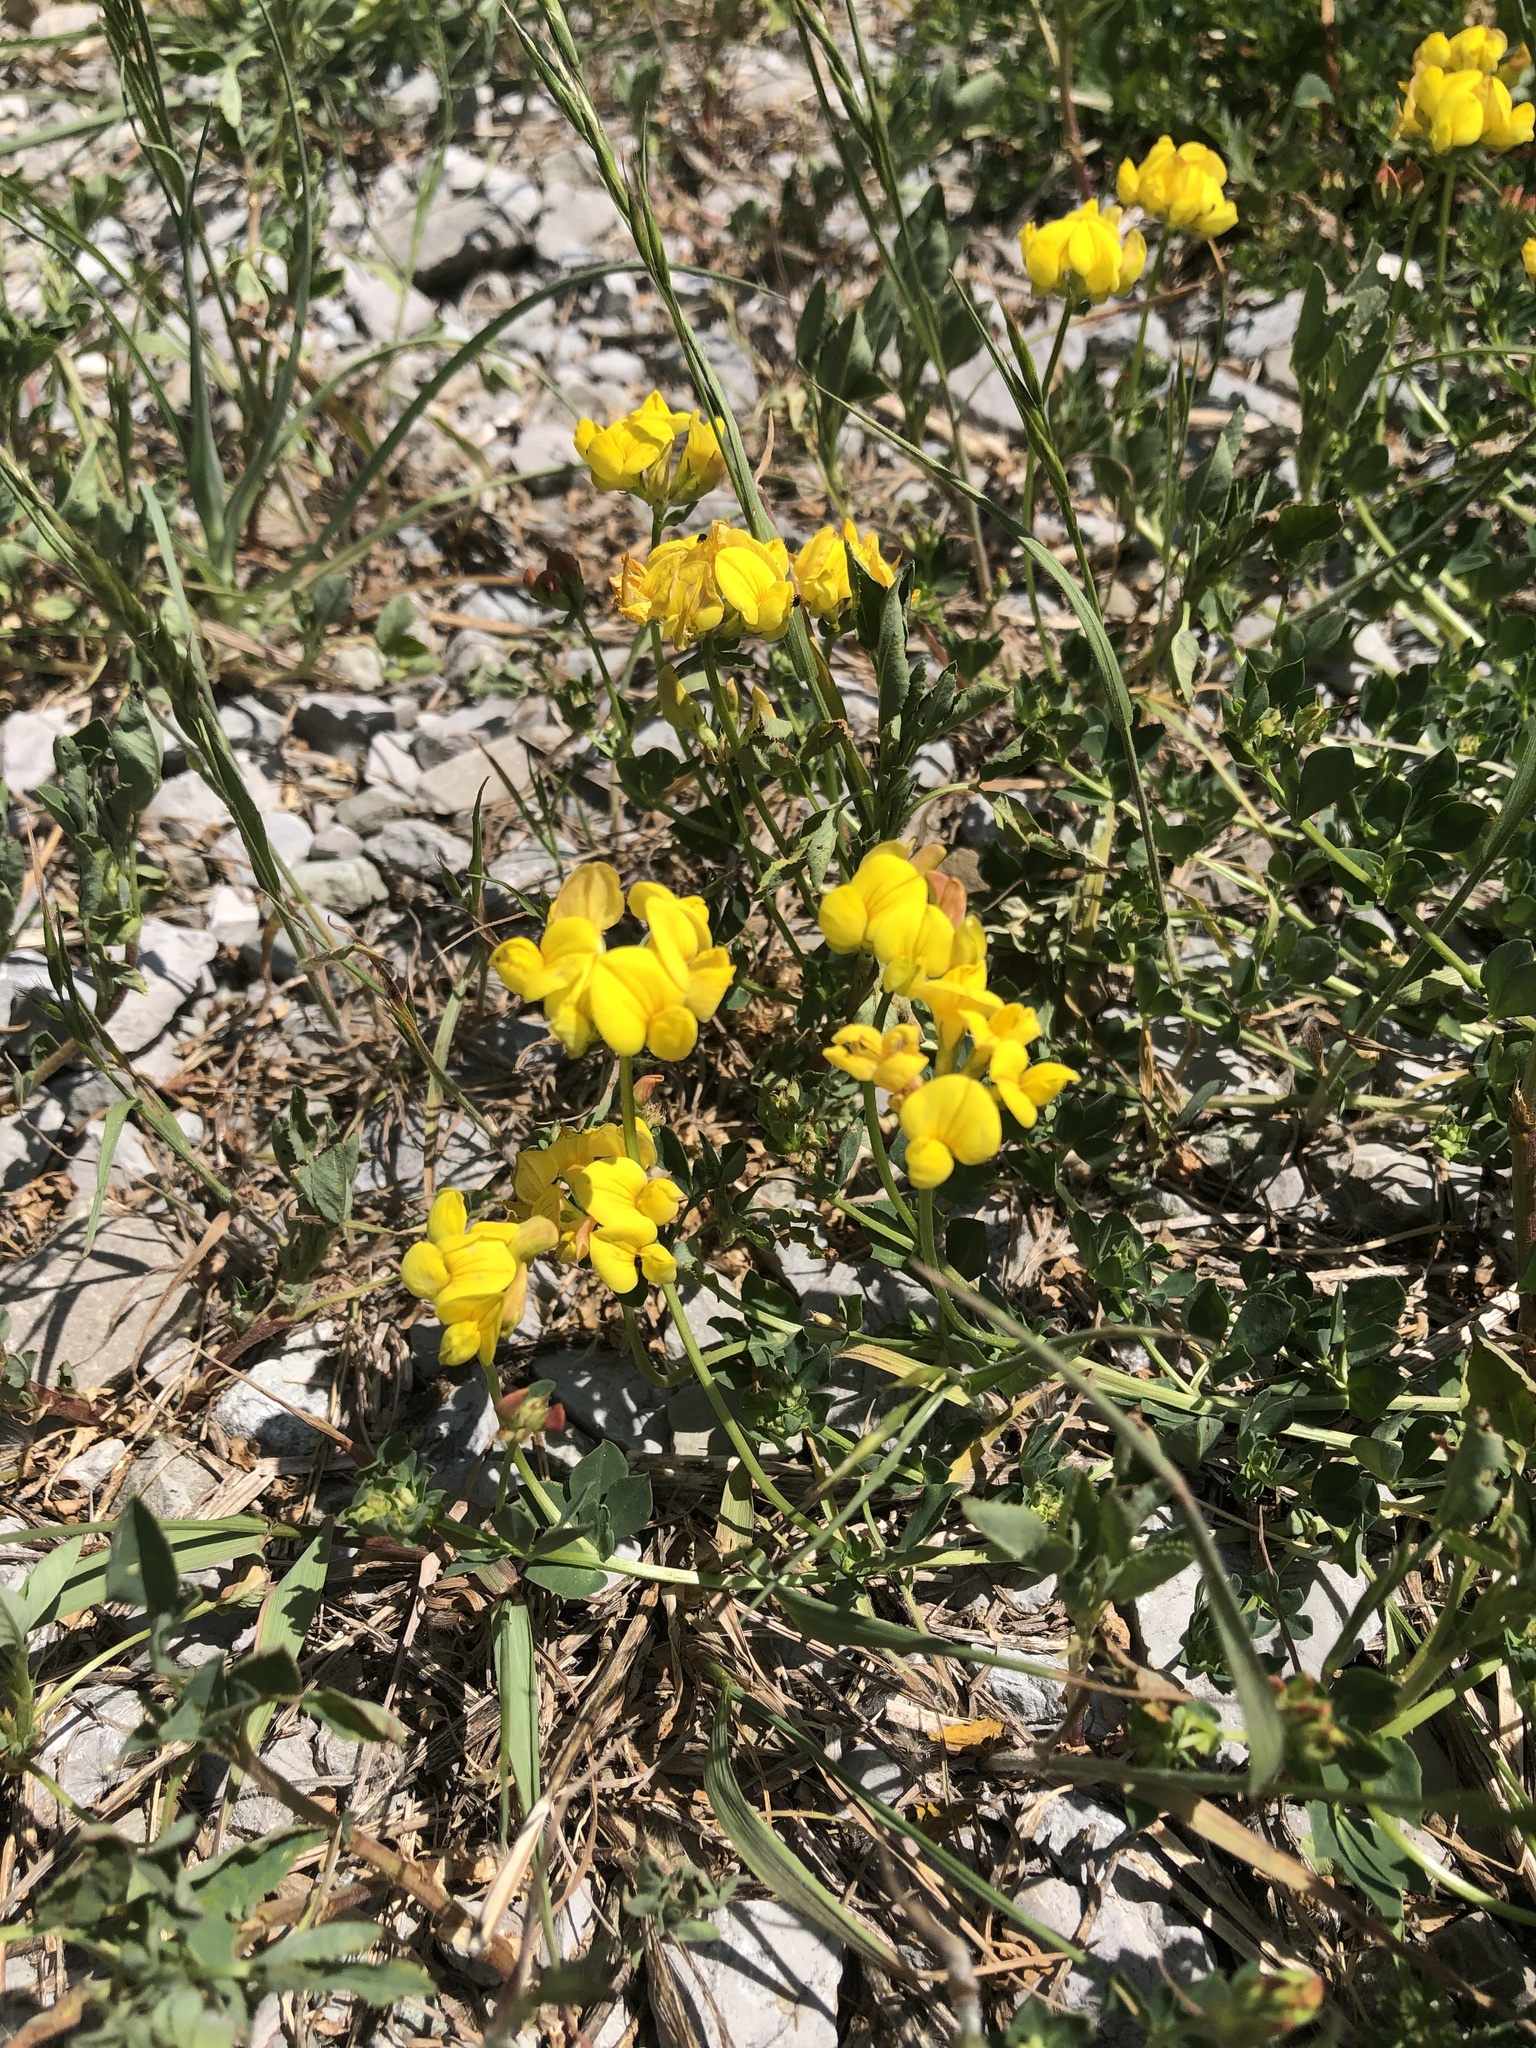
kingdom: Plantae
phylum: Tracheophyta
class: Magnoliopsida
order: Fabales
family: Fabaceae
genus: Lotus
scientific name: Lotus corniculatus
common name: Common bird's-foot-trefoil
